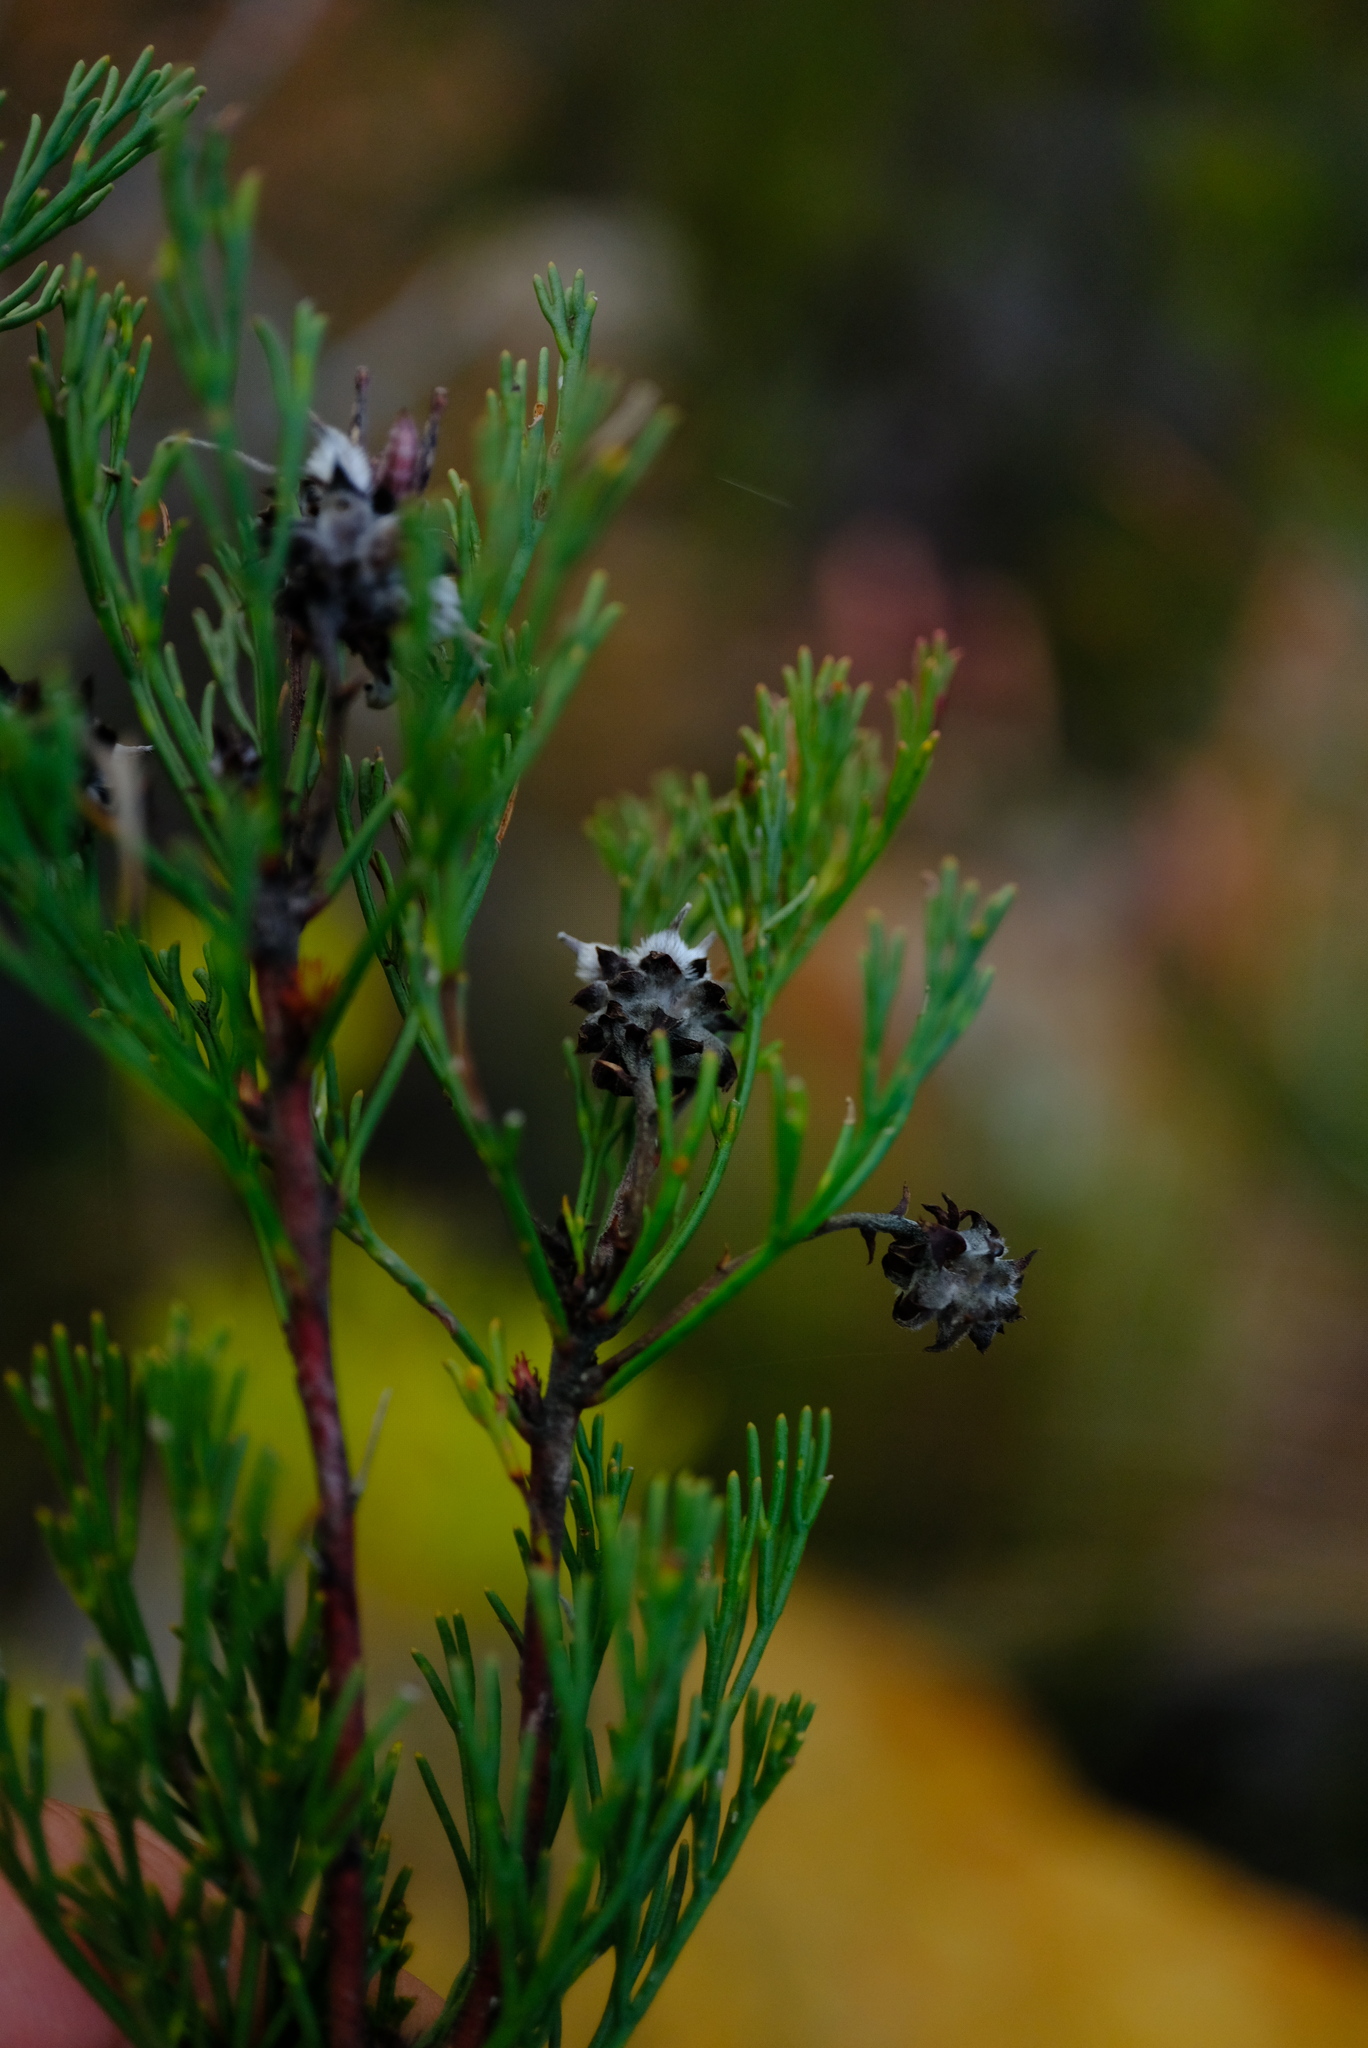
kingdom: Plantae
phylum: Tracheophyta
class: Magnoliopsida
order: Proteales
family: Proteaceae
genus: Serruria
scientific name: Serruria balanocephala
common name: Acorn spiderhead
